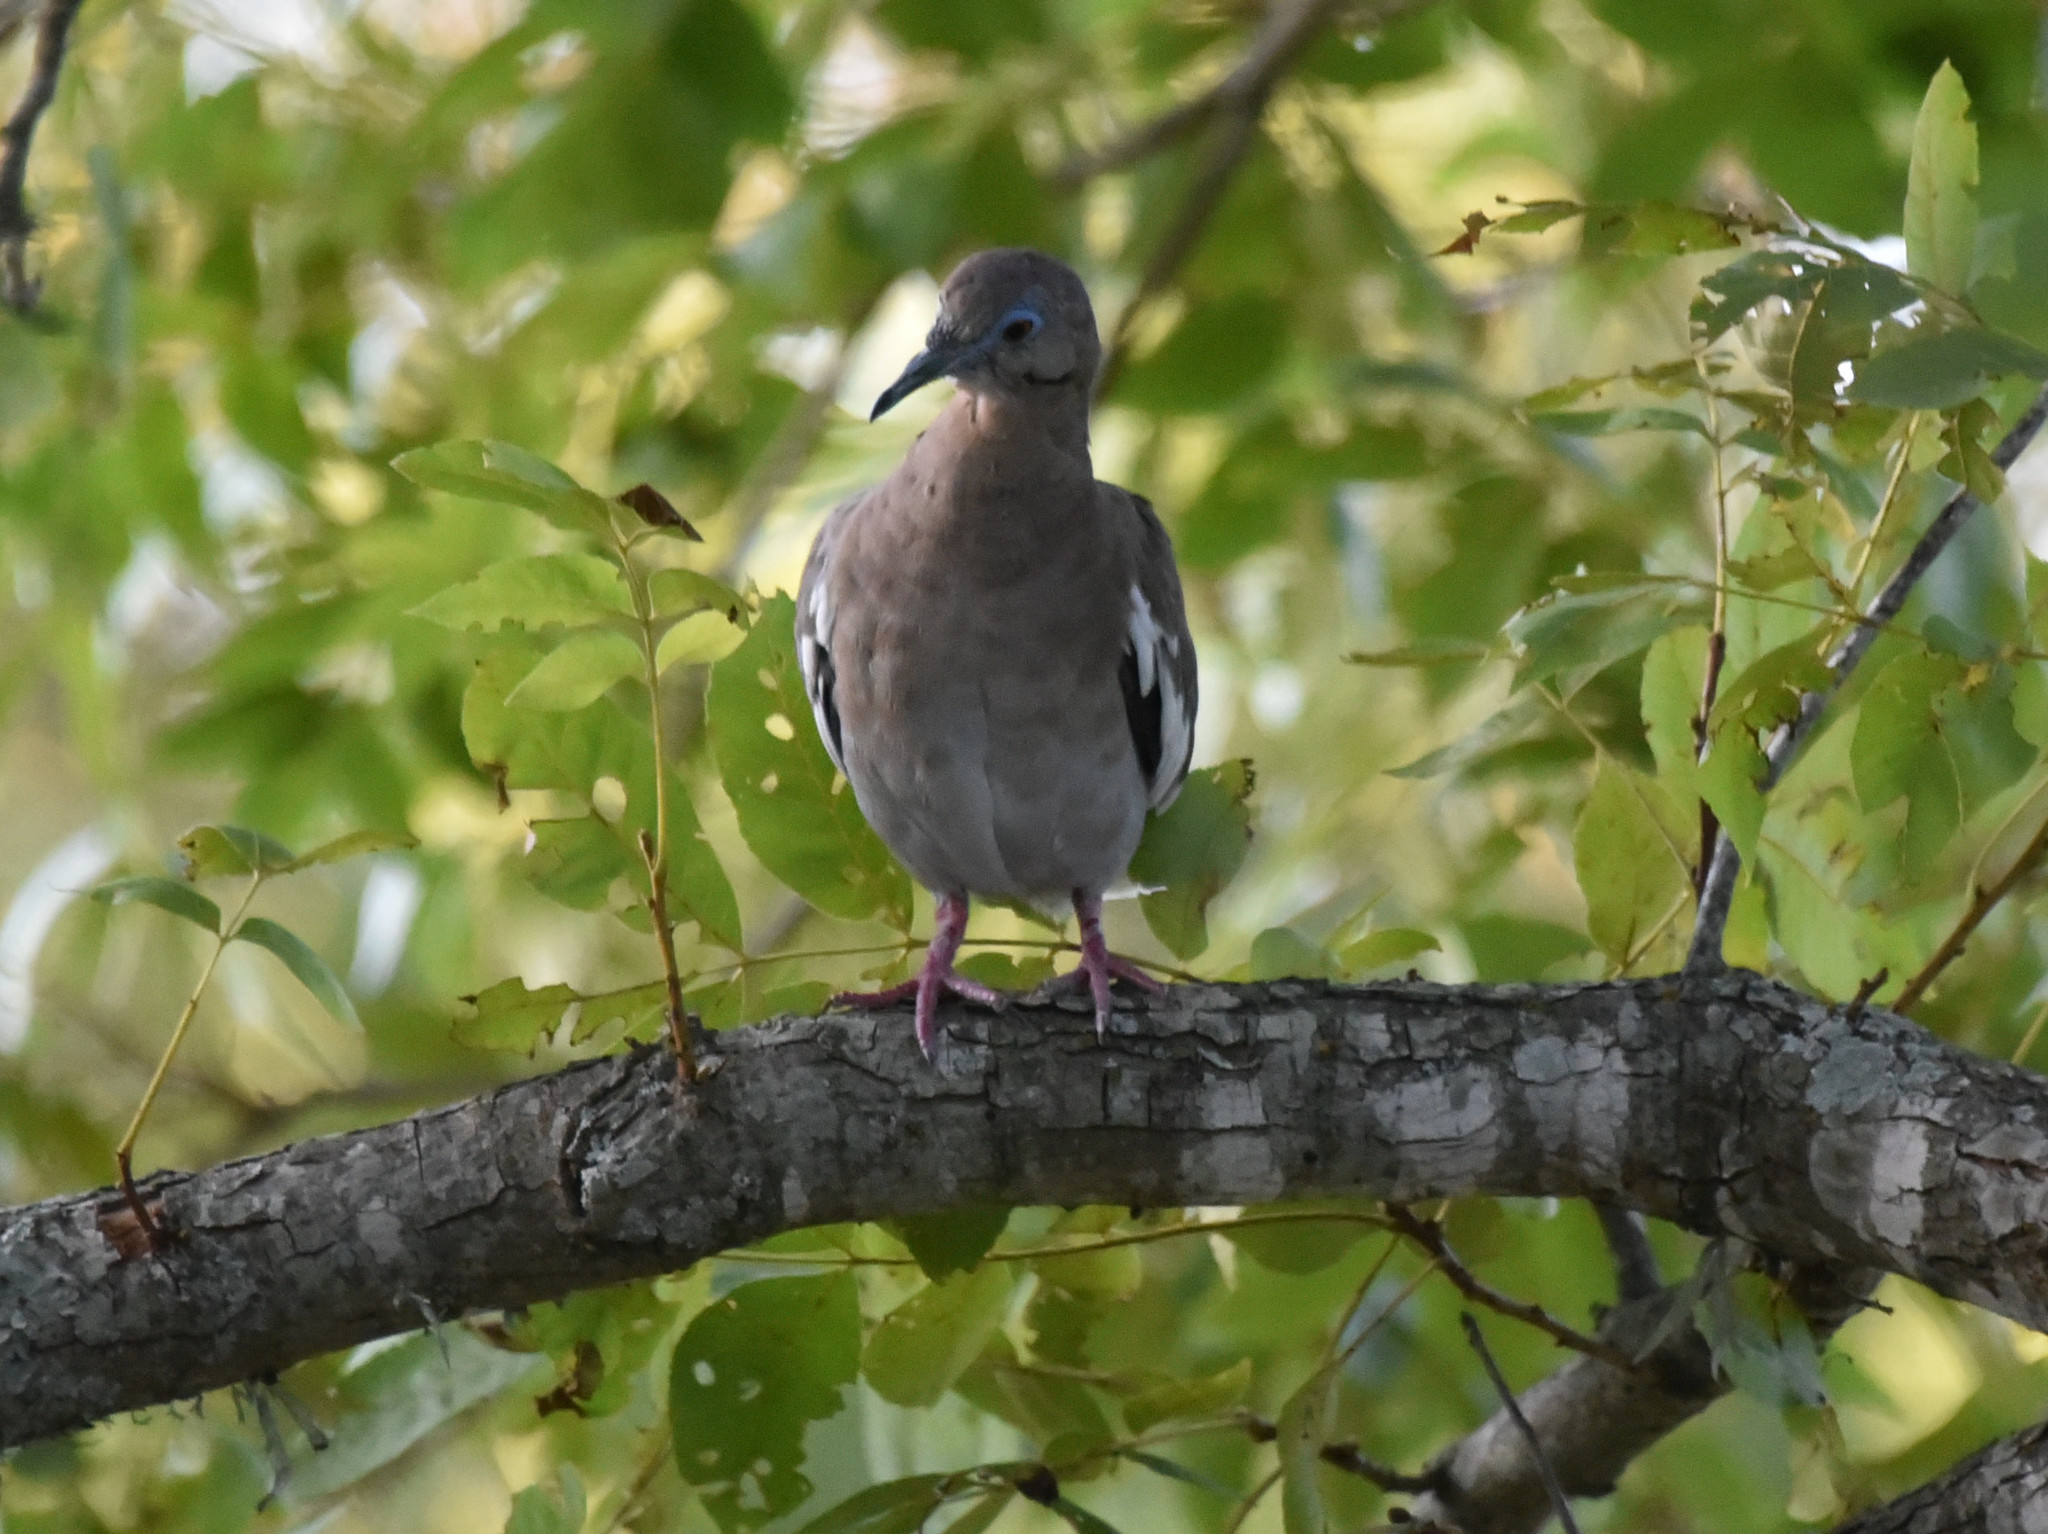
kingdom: Animalia
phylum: Chordata
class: Aves
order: Columbiformes
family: Columbidae
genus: Zenaida
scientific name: Zenaida asiatica
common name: White-winged dove
